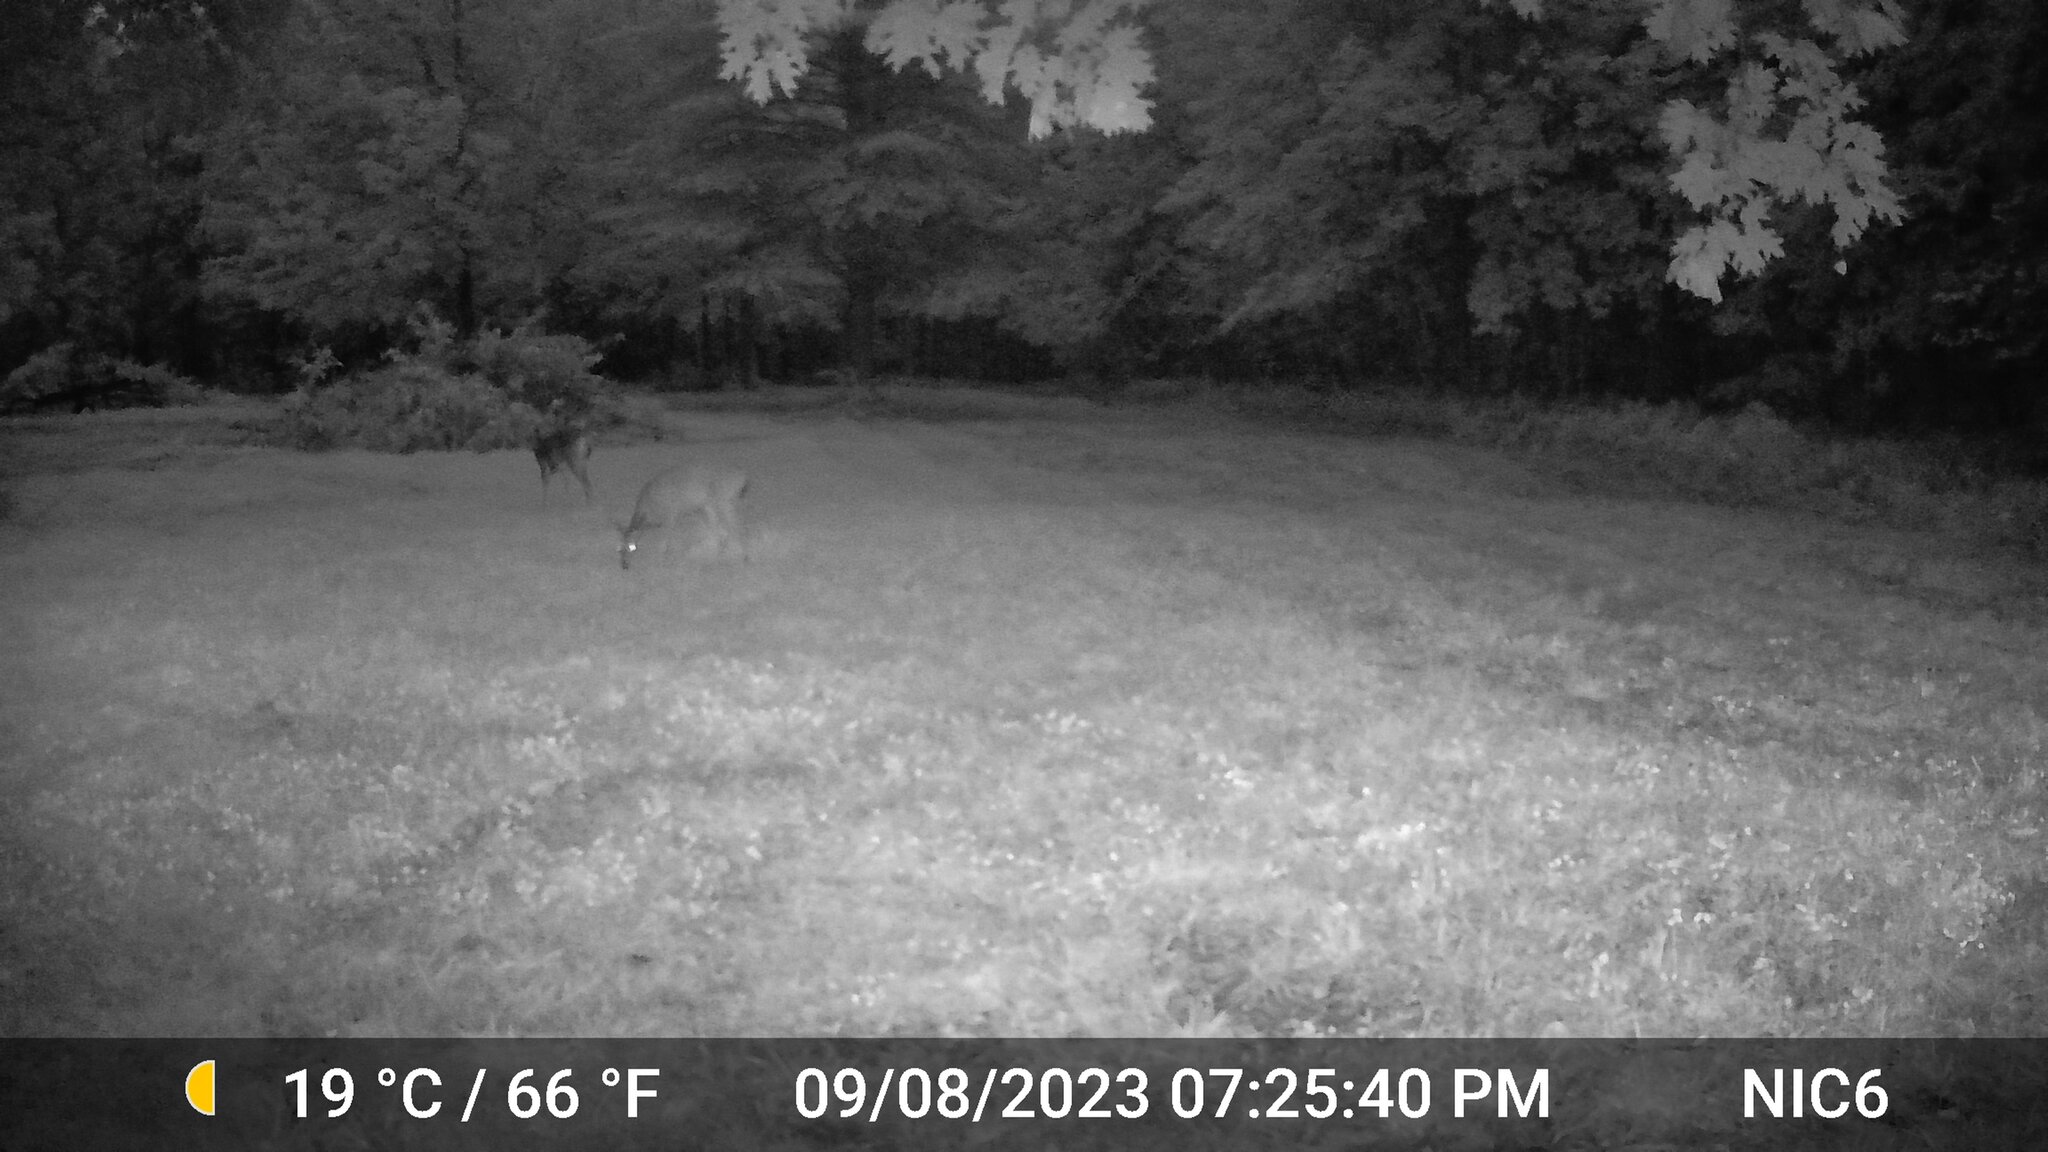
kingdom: Animalia
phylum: Chordata
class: Mammalia
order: Artiodactyla
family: Cervidae
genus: Odocoileus
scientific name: Odocoileus virginianus
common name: White-tailed deer
